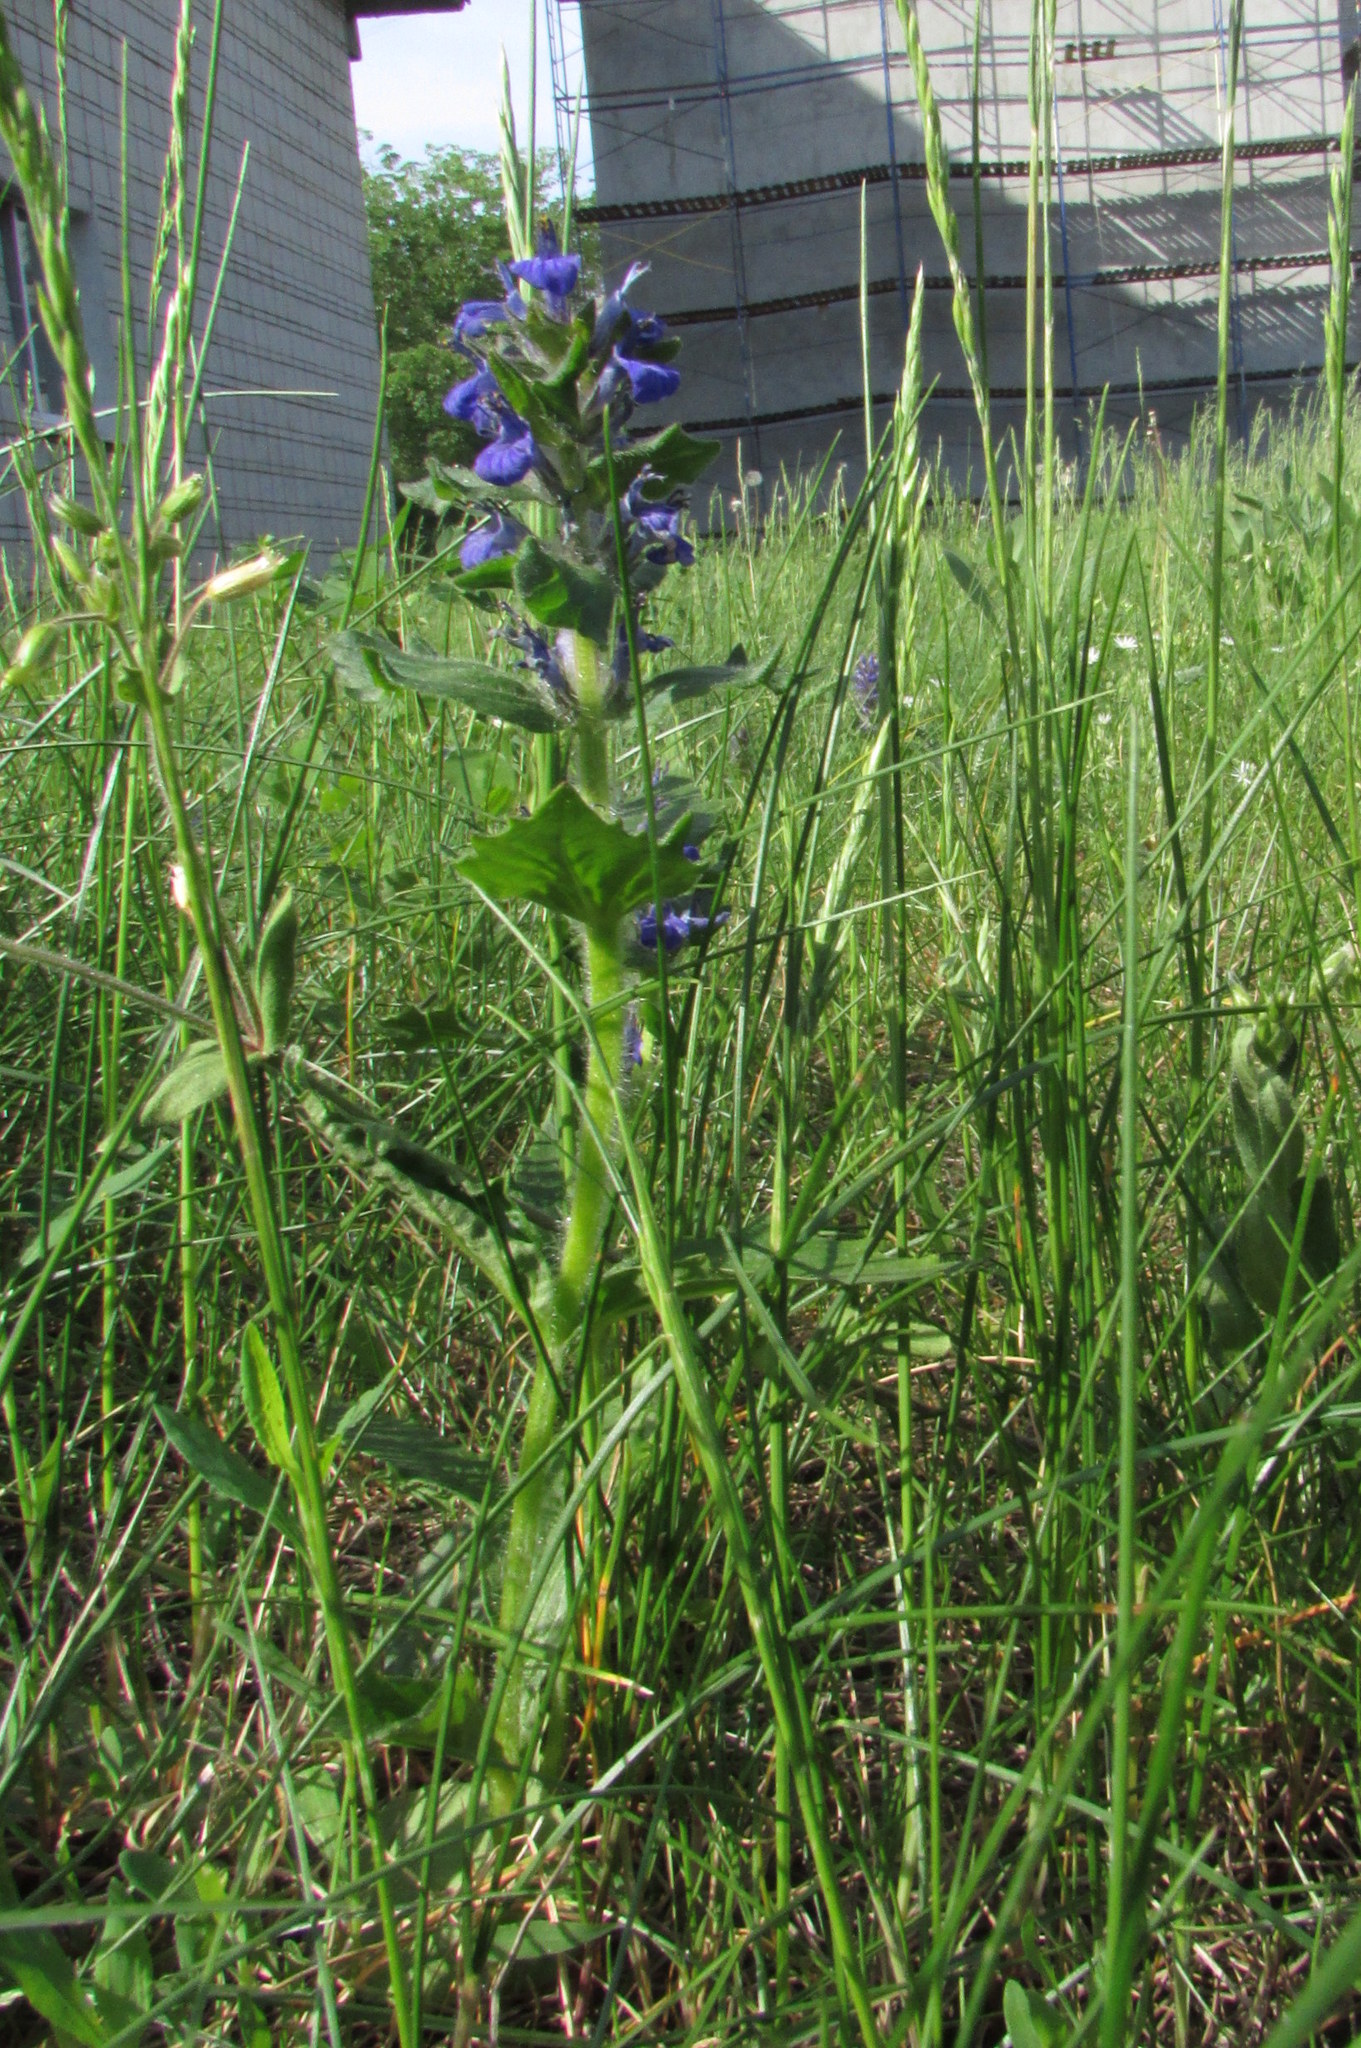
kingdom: Plantae
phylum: Tracheophyta
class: Magnoliopsida
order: Lamiales
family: Lamiaceae
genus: Ajuga
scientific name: Ajuga genevensis
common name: Blue bugle
